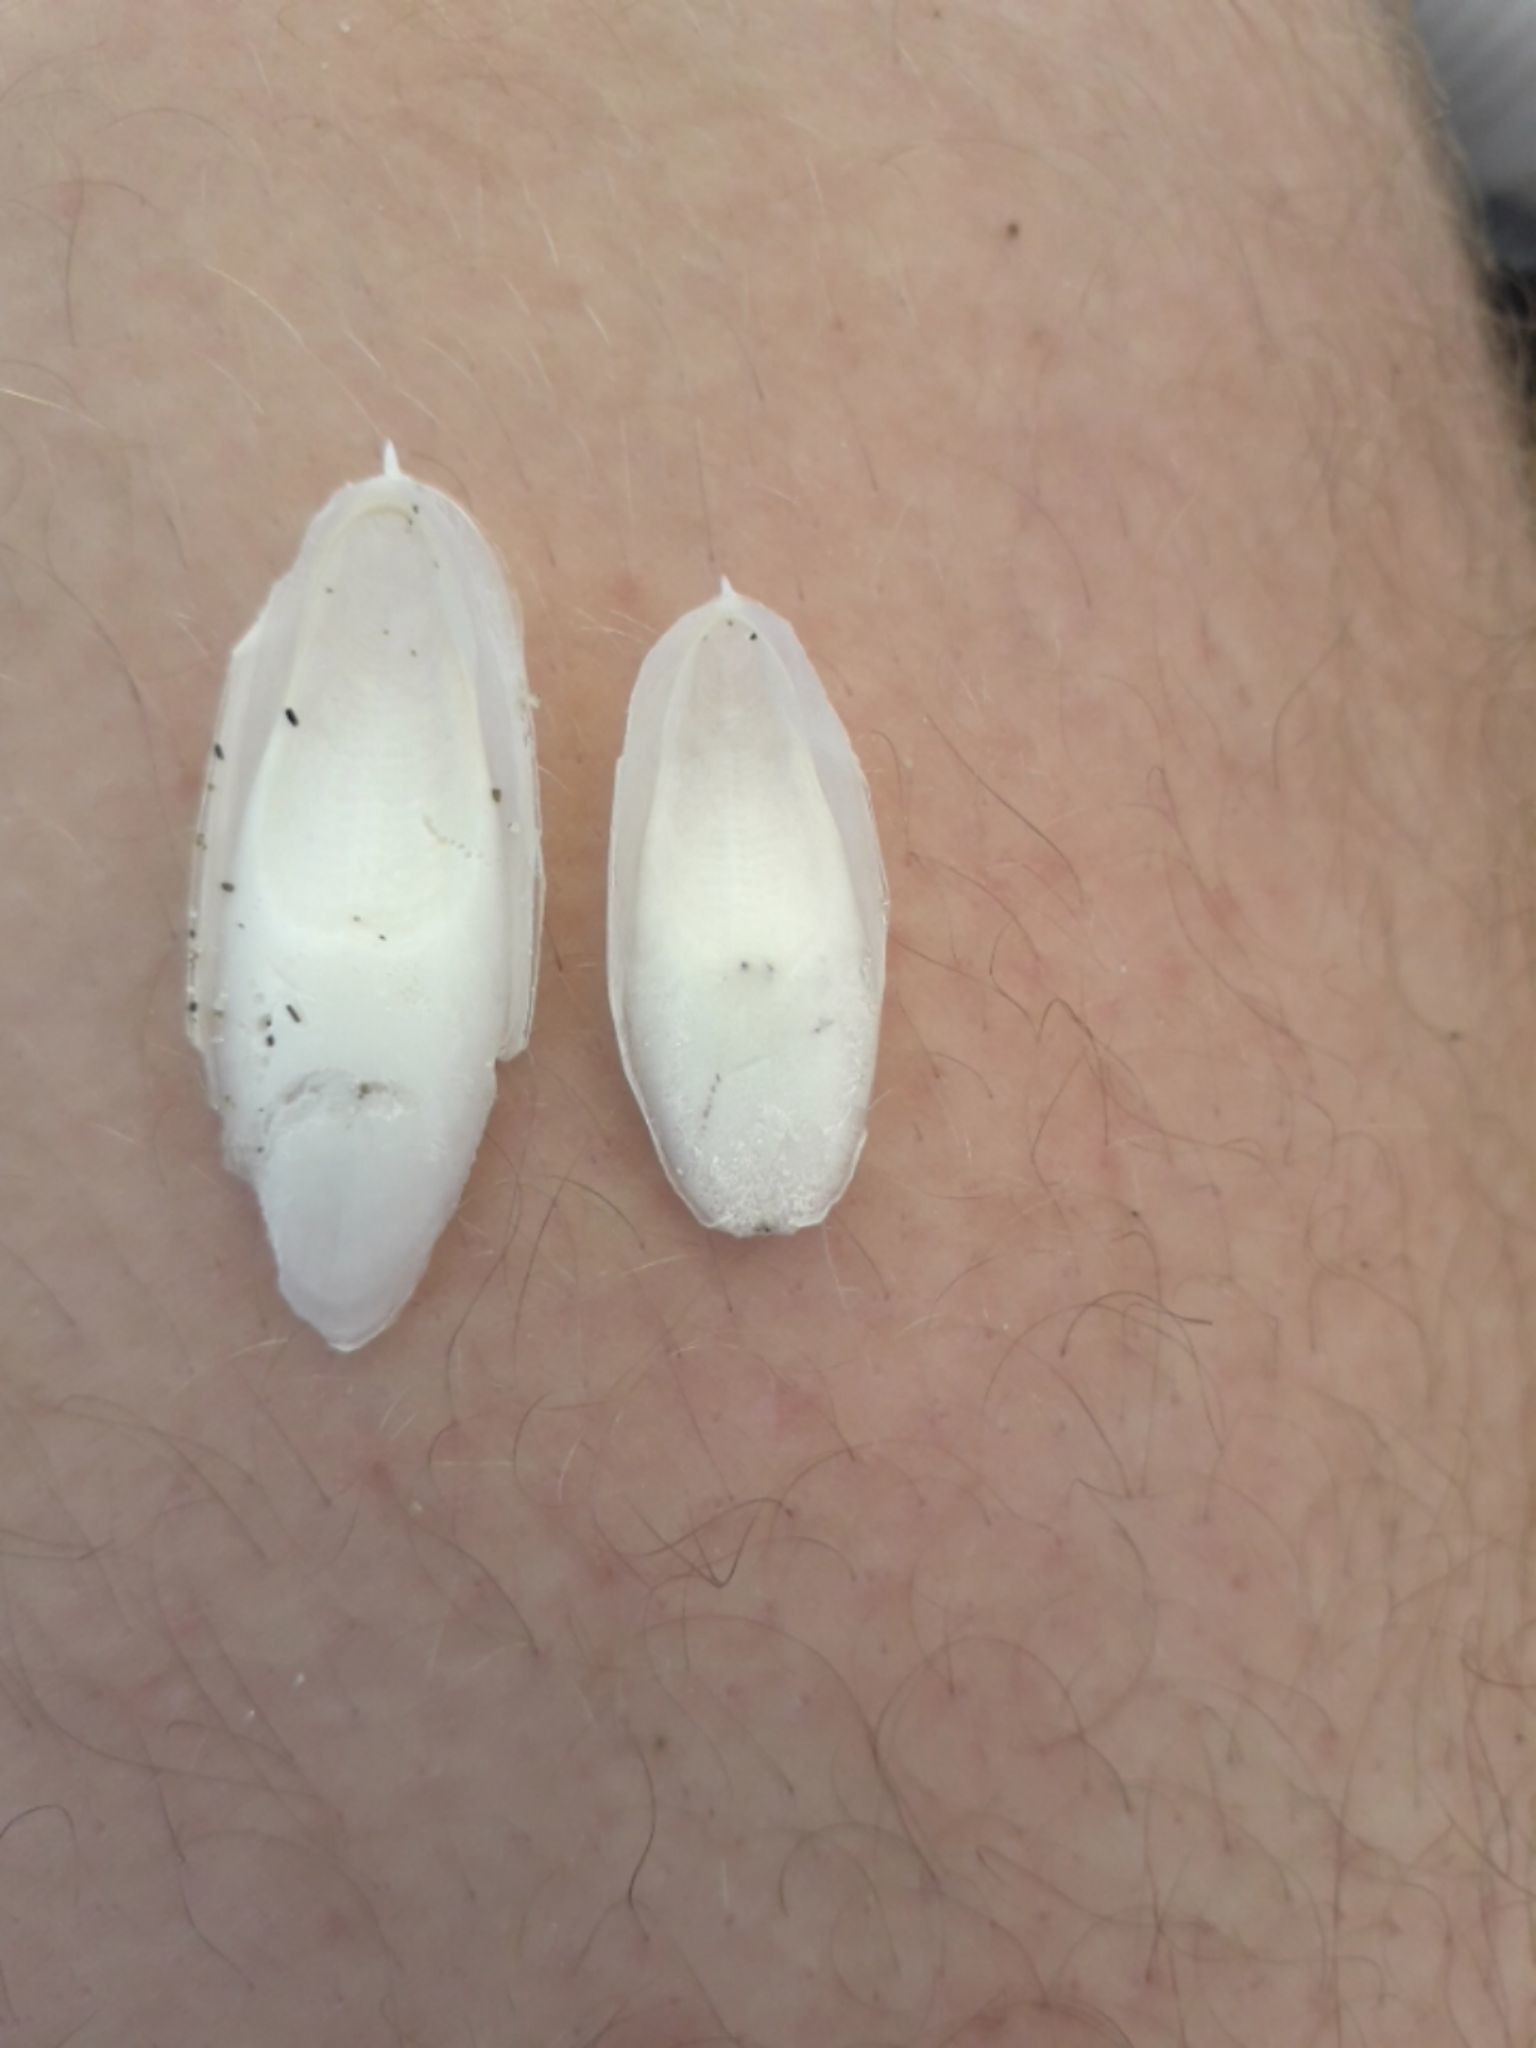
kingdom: Animalia
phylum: Mollusca
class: Cephalopoda
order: Sepiida
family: Sepiidae
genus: Sepia
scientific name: Sepia officinalis
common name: Common cuttlefish
